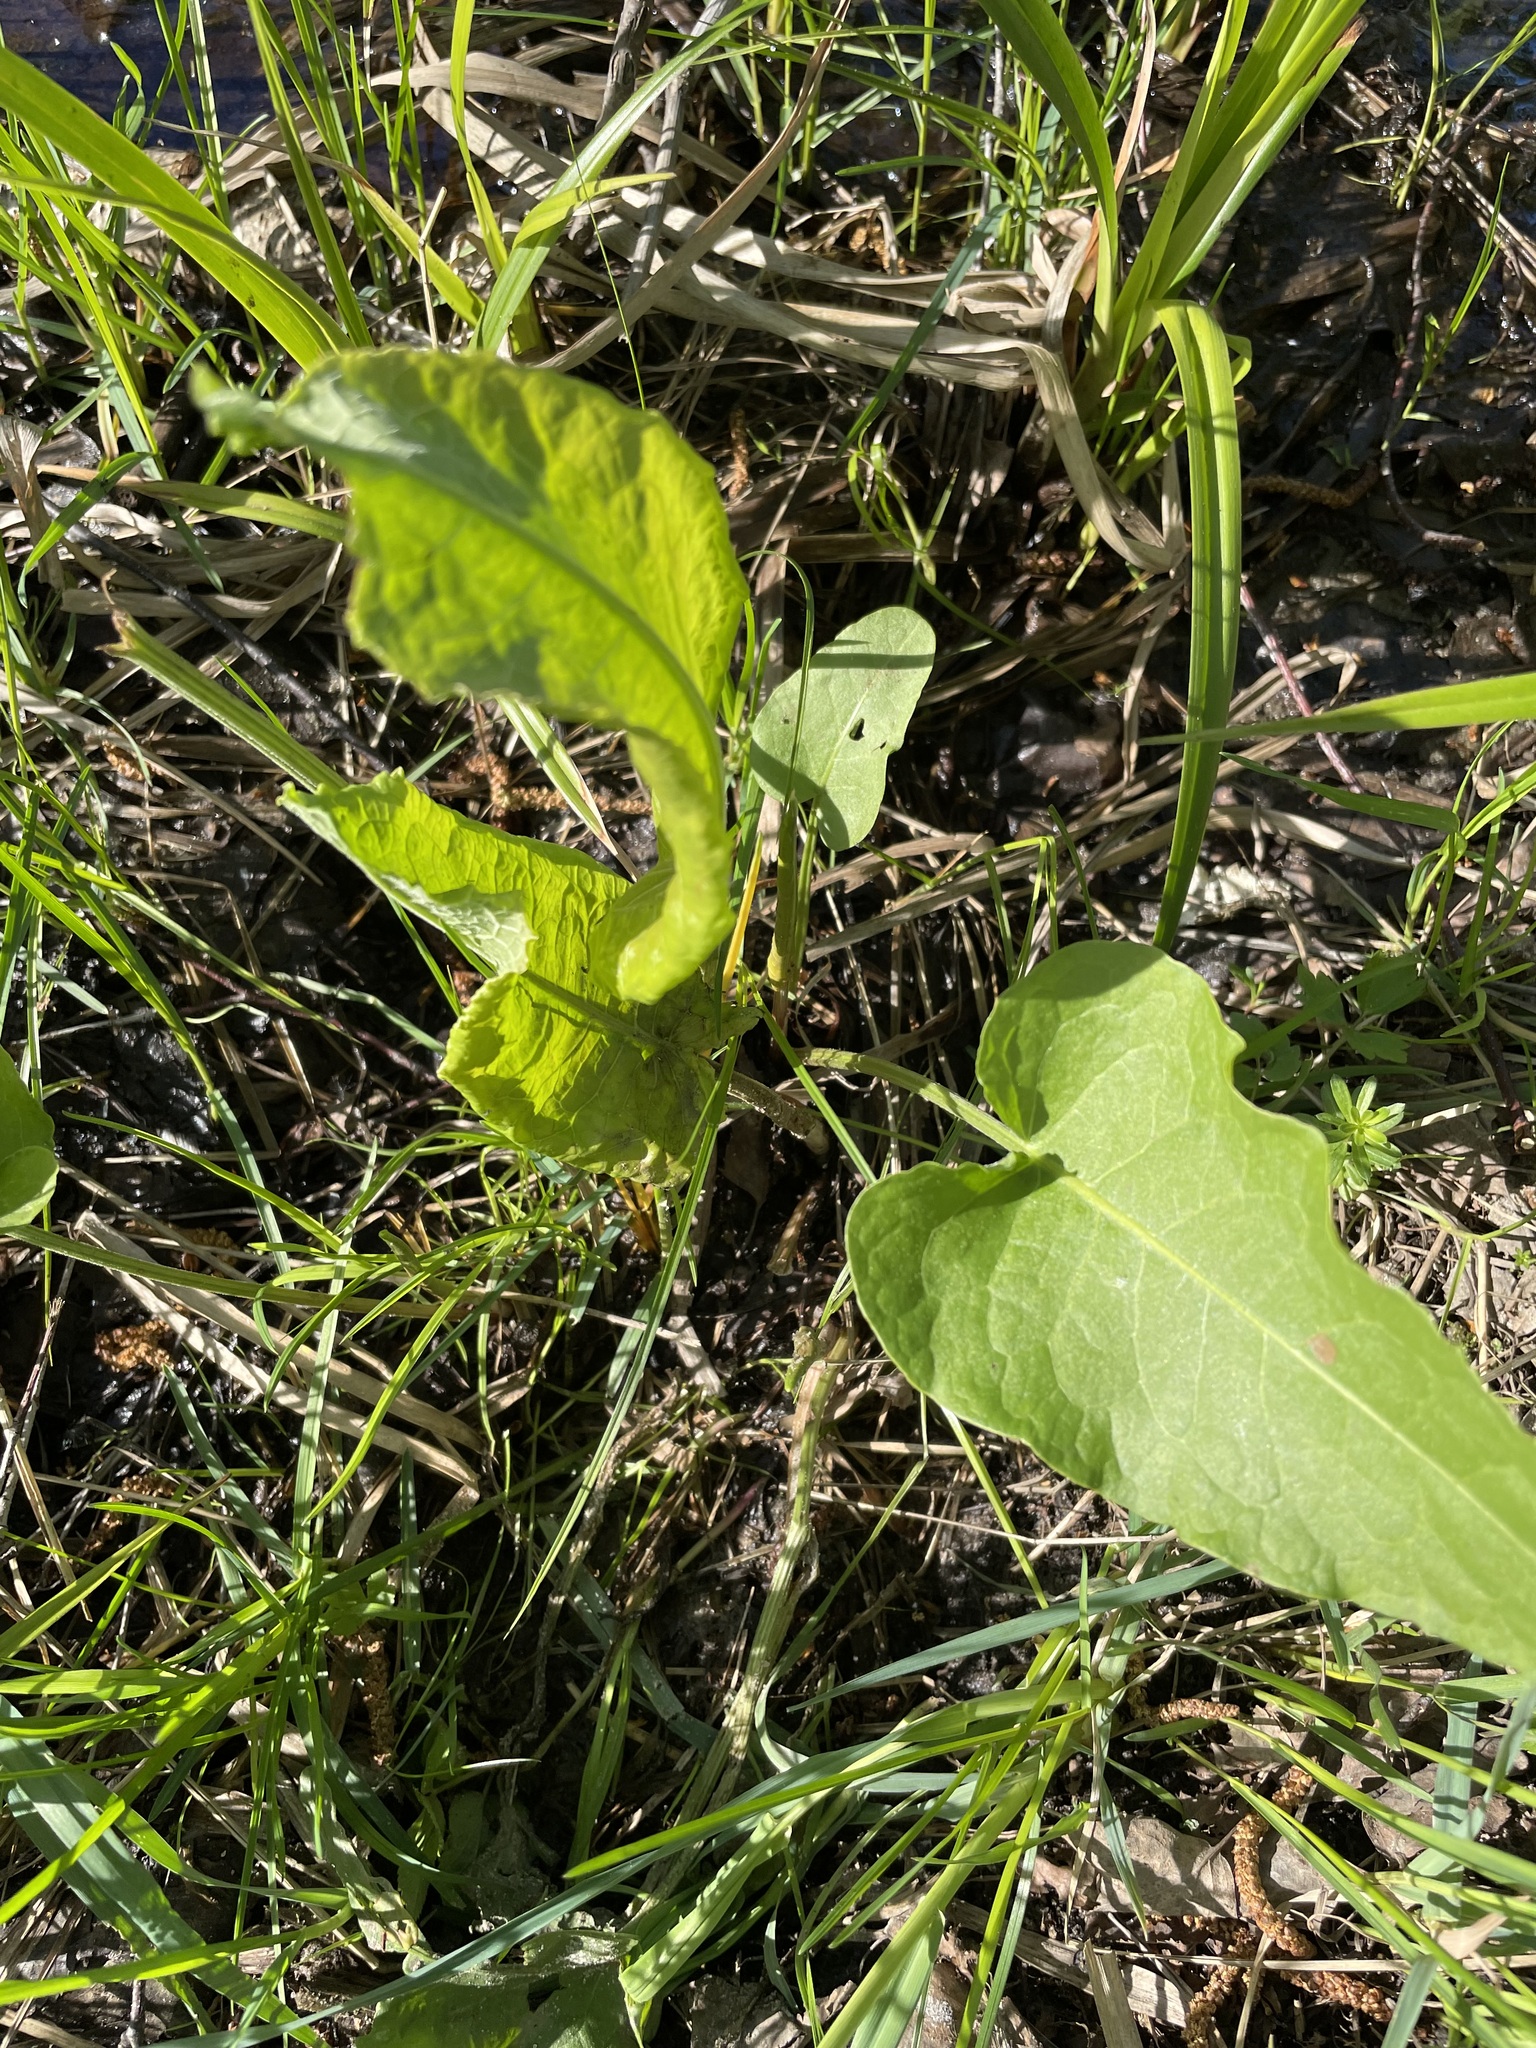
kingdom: Plantae
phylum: Tracheophyta
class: Magnoliopsida
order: Caryophyllales
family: Polygonaceae
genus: Rumex
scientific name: Rumex confertus
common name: Russian dock
